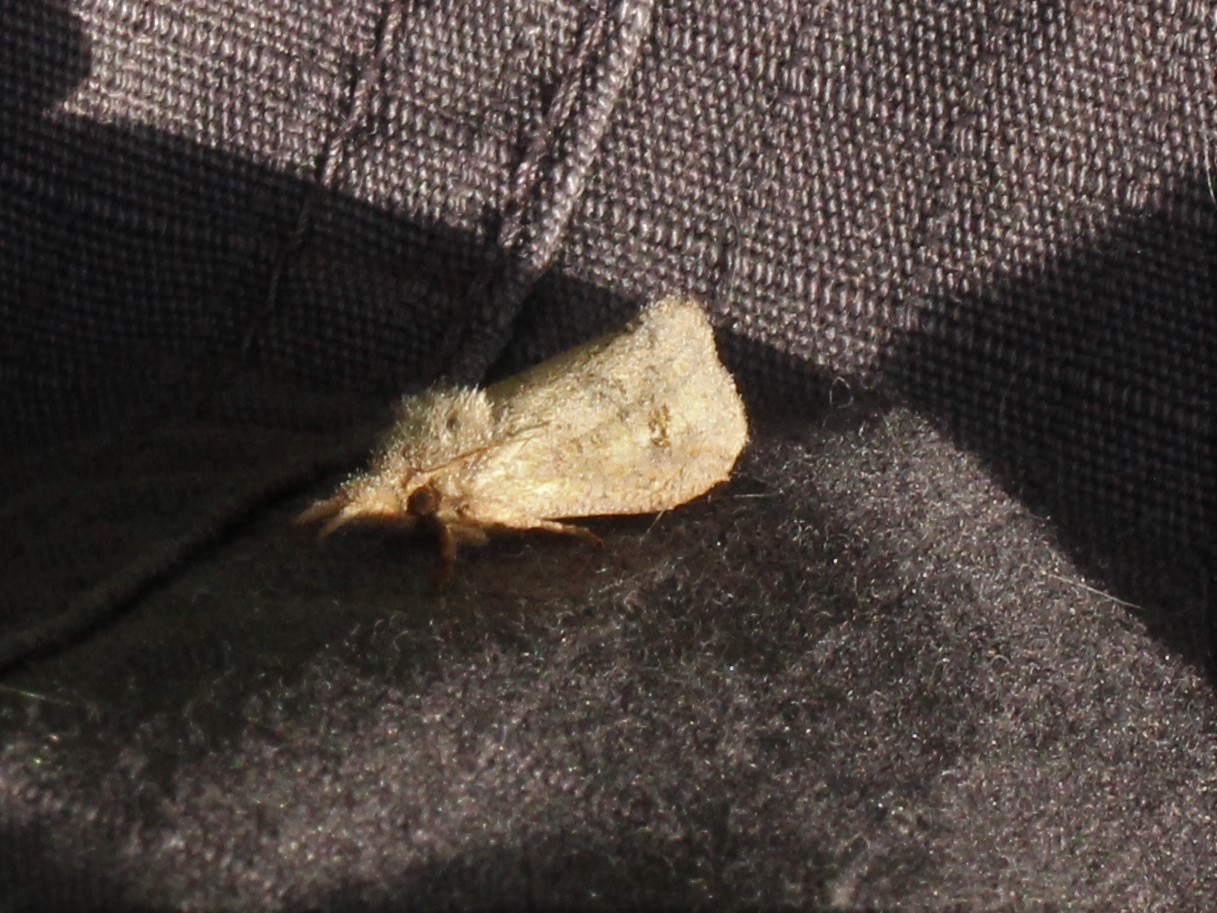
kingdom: Animalia
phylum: Arthropoda
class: Insecta
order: Lepidoptera
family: Tineidae
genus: Acrolophus
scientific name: Acrolophus plumifrontella
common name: Eastern grass tubeworm moth
